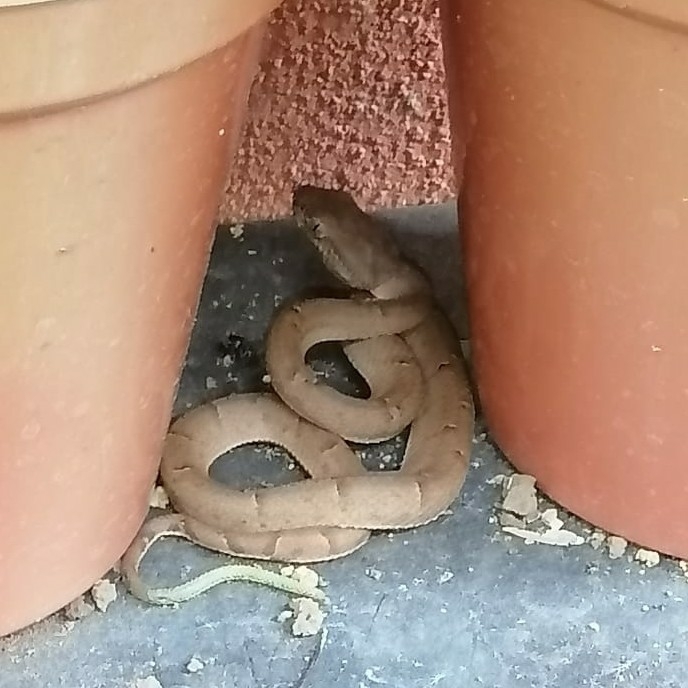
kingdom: Animalia
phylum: Chordata
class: Squamata
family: Viperidae
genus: Bothriechis
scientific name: Bothriechis lateralis
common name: Coffee palm viper
